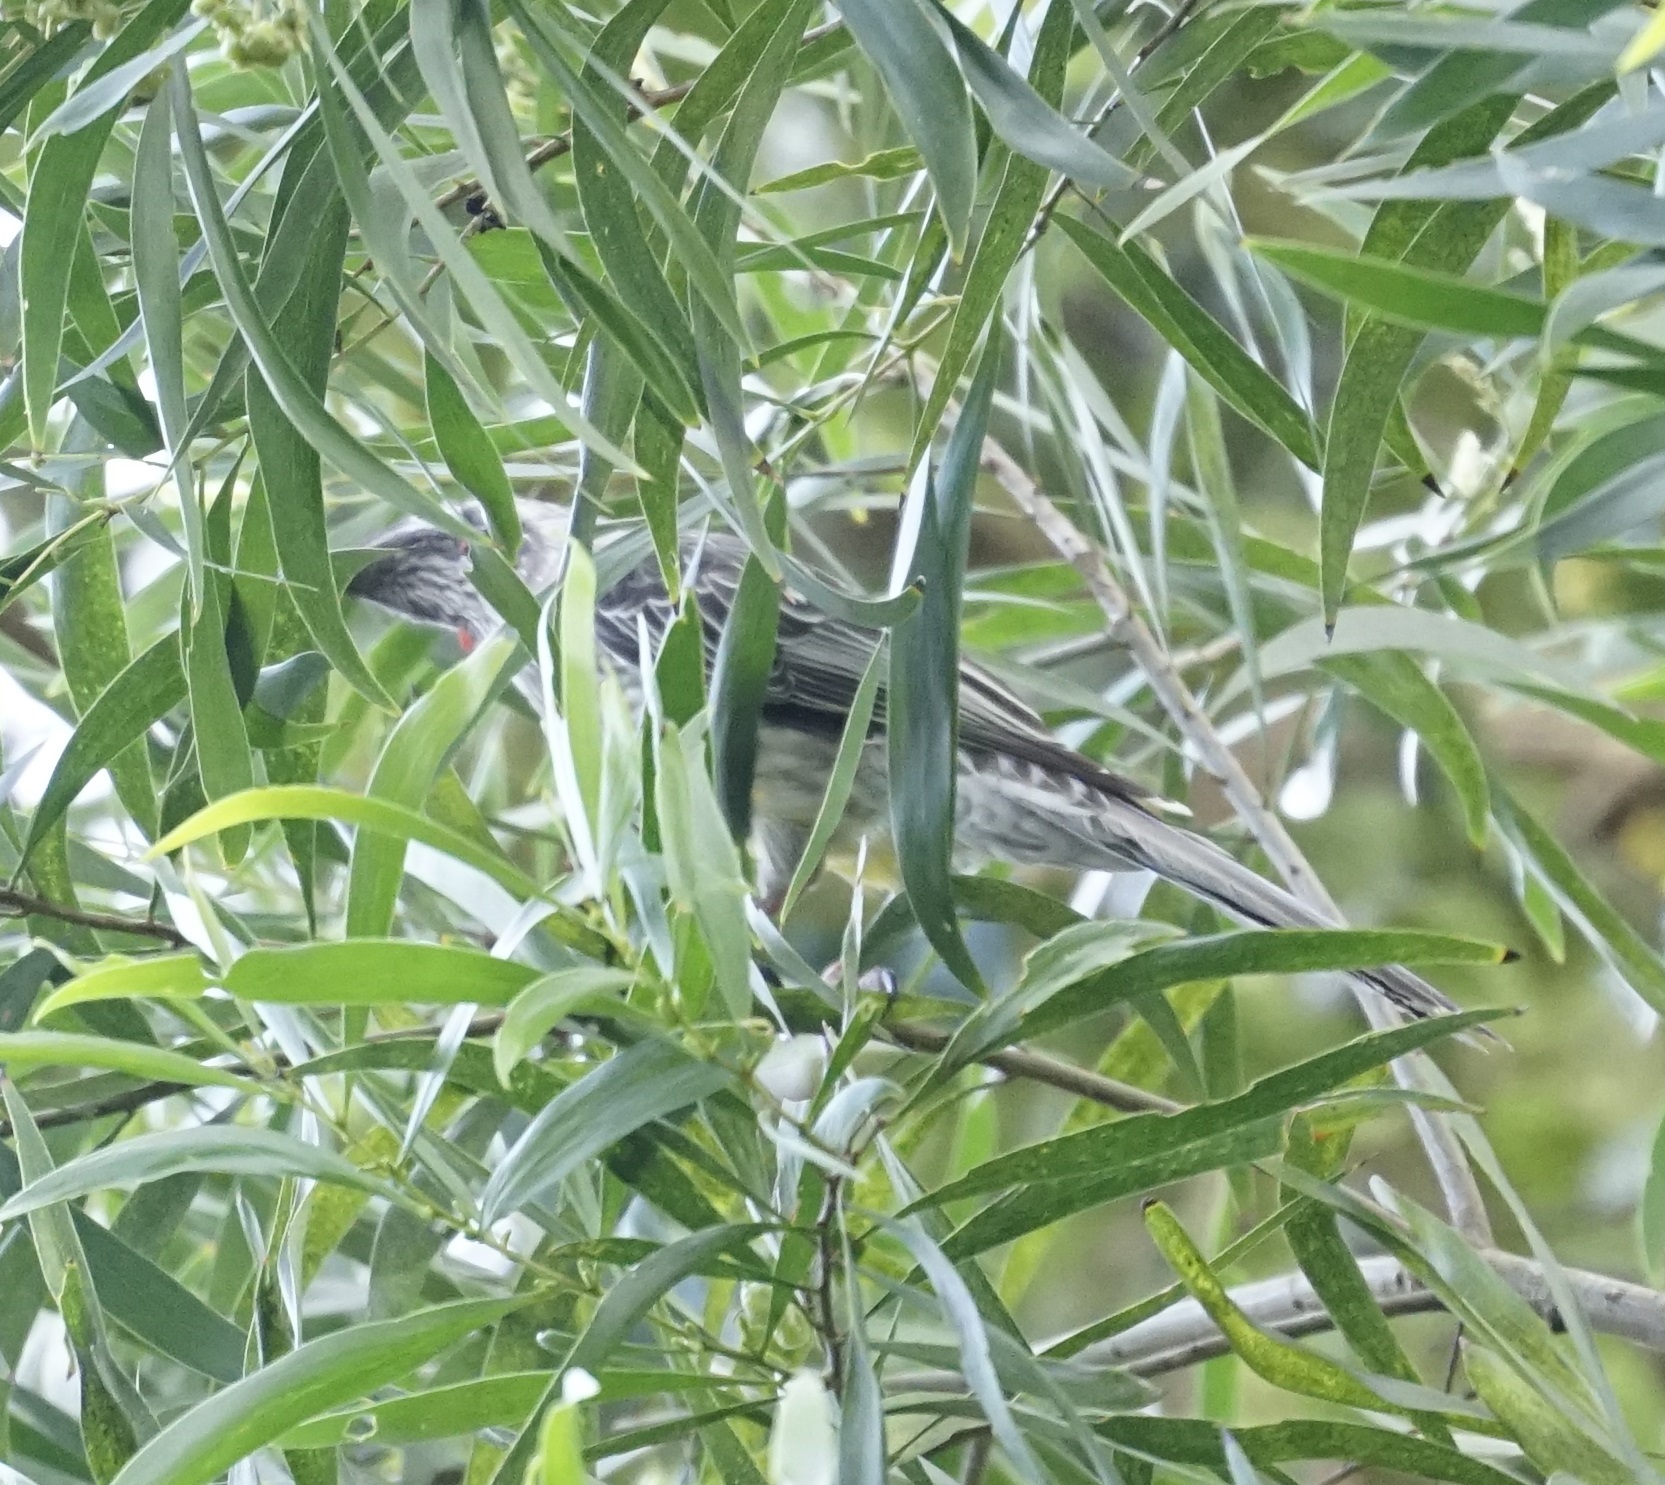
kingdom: Animalia
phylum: Chordata
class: Aves
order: Passeriformes
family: Meliphagidae
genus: Anthochaera
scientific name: Anthochaera carunculata
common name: Red wattlebird
